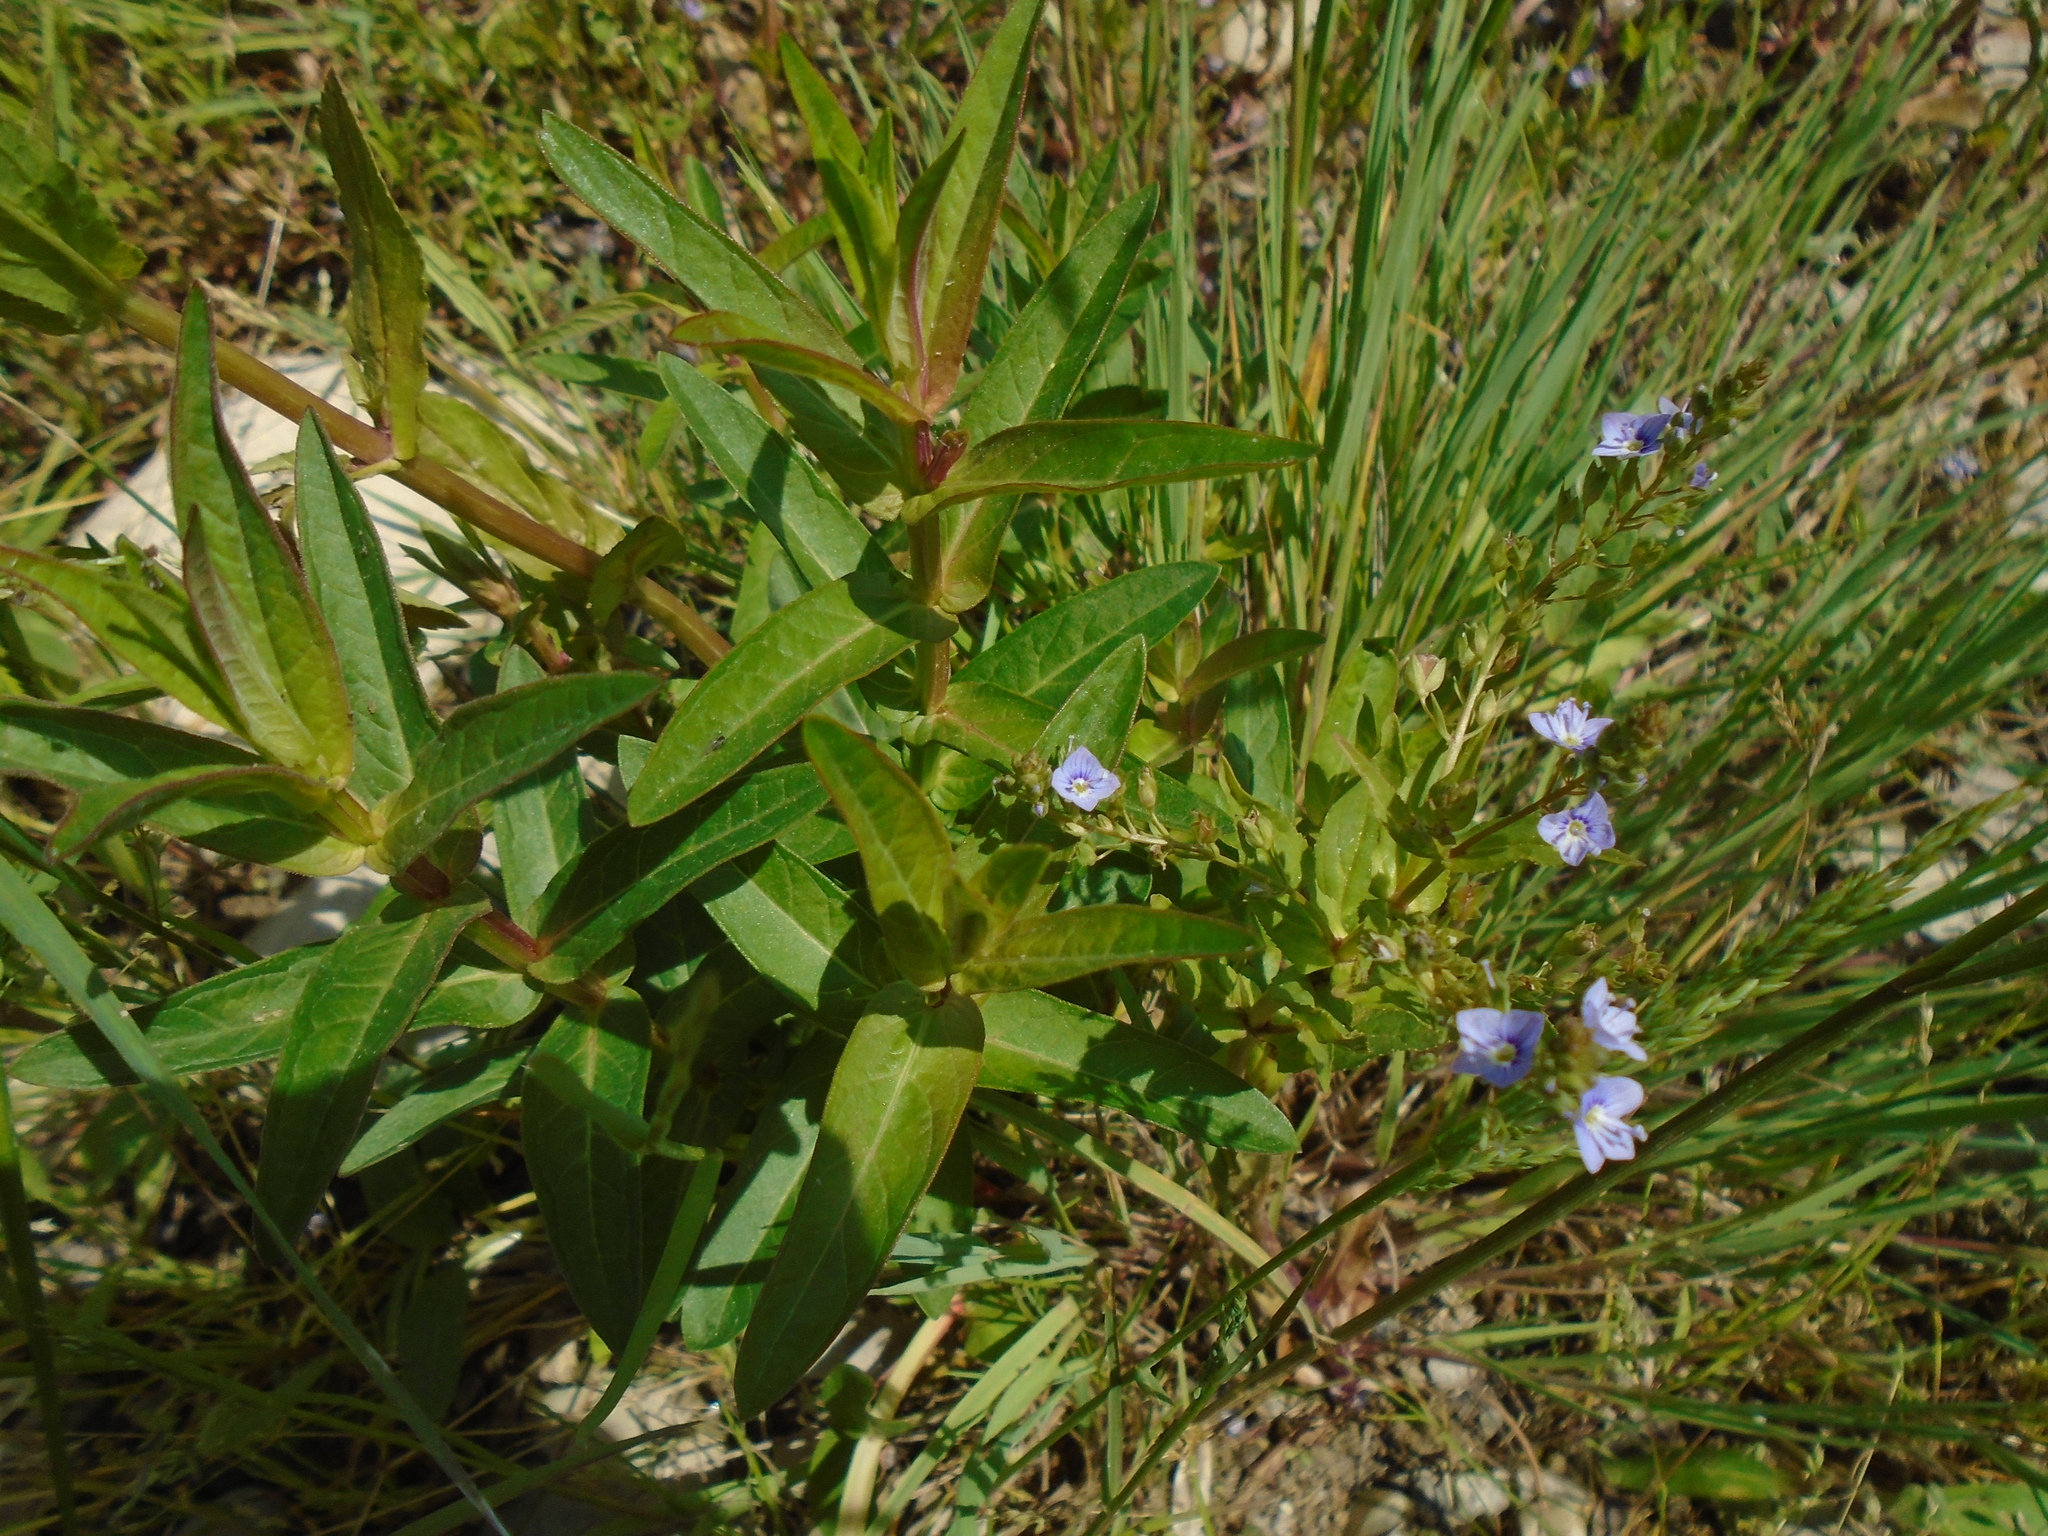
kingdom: Plantae
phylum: Tracheophyta
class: Magnoliopsida
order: Lamiales
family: Plantaginaceae
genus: Veronica
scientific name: Veronica anagallis-aquatica
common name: Water speedwell
